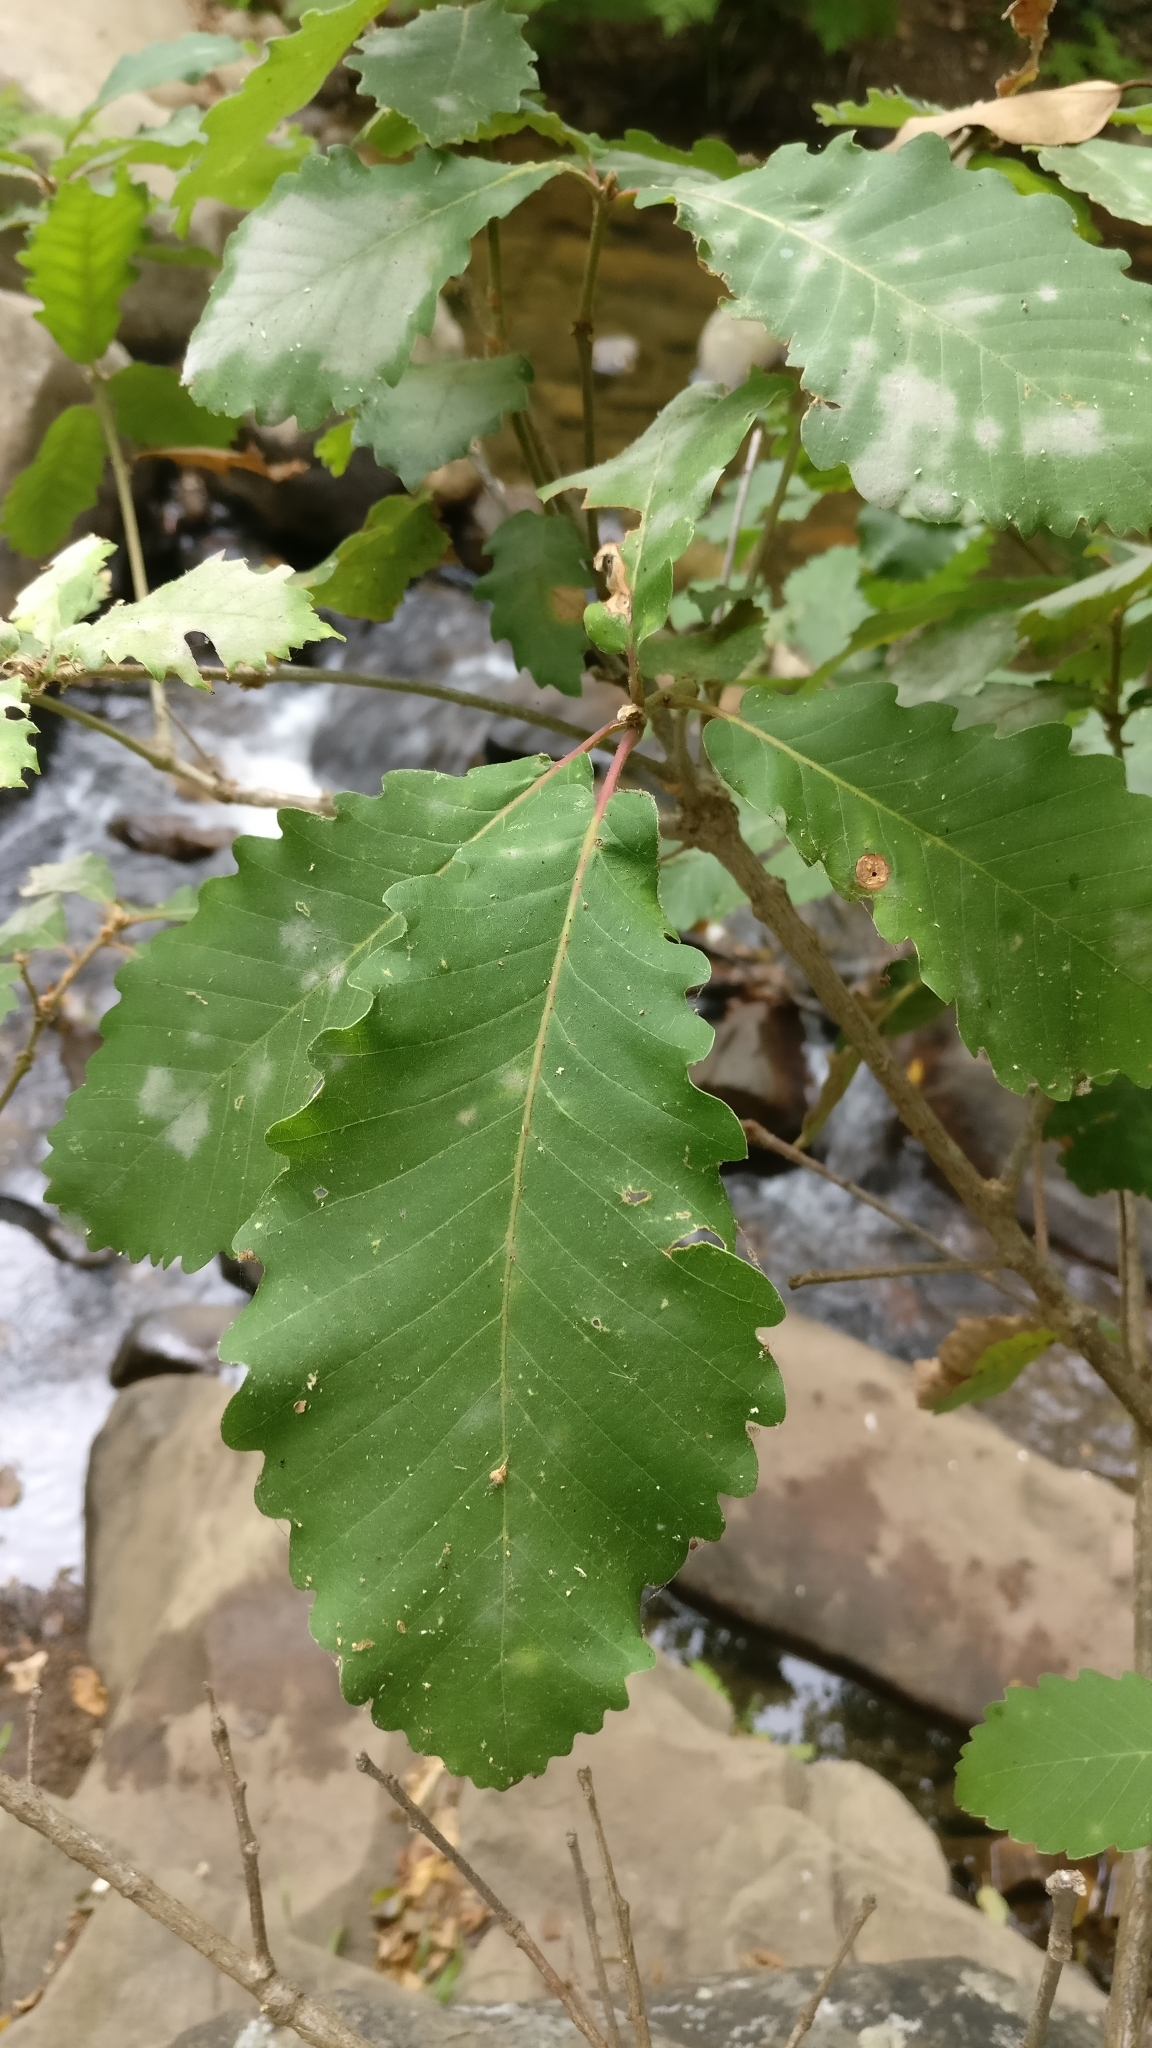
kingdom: Plantae
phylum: Tracheophyta
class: Magnoliopsida
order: Fagales
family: Fagaceae
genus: Quercus
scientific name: Quercus canariensis
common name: Algerian oak
